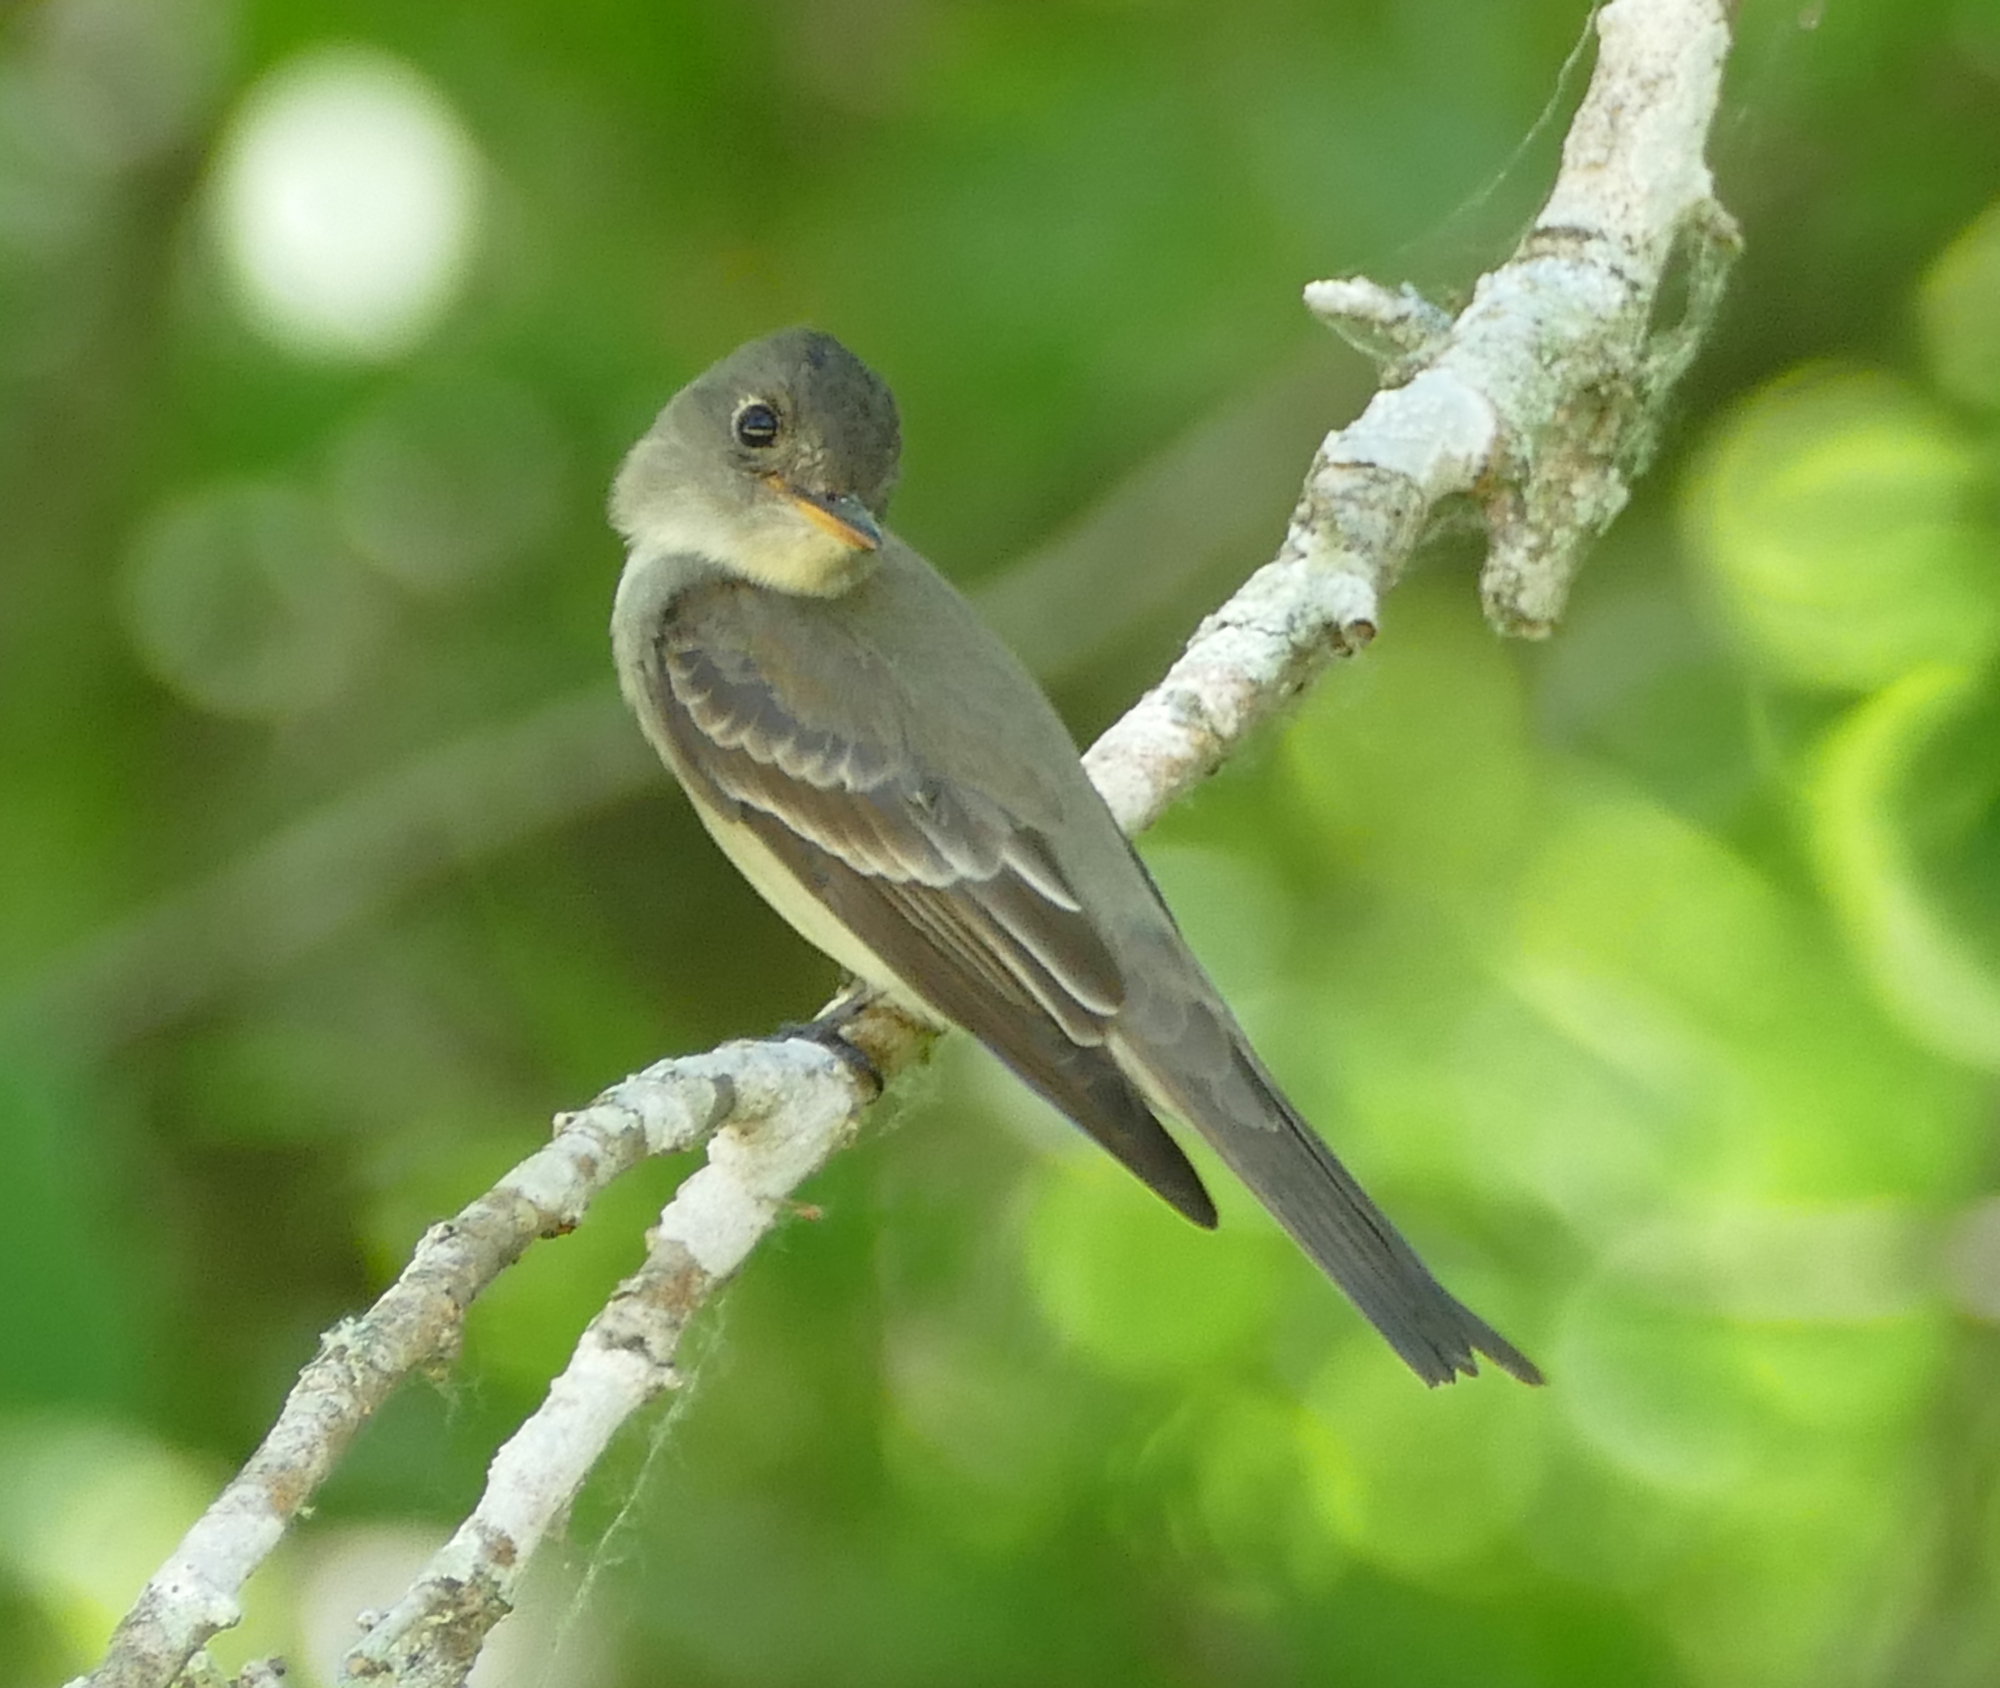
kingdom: Animalia
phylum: Chordata
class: Aves
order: Passeriformes
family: Tyrannidae
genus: Contopus
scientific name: Contopus virens
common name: Eastern wood-pewee
